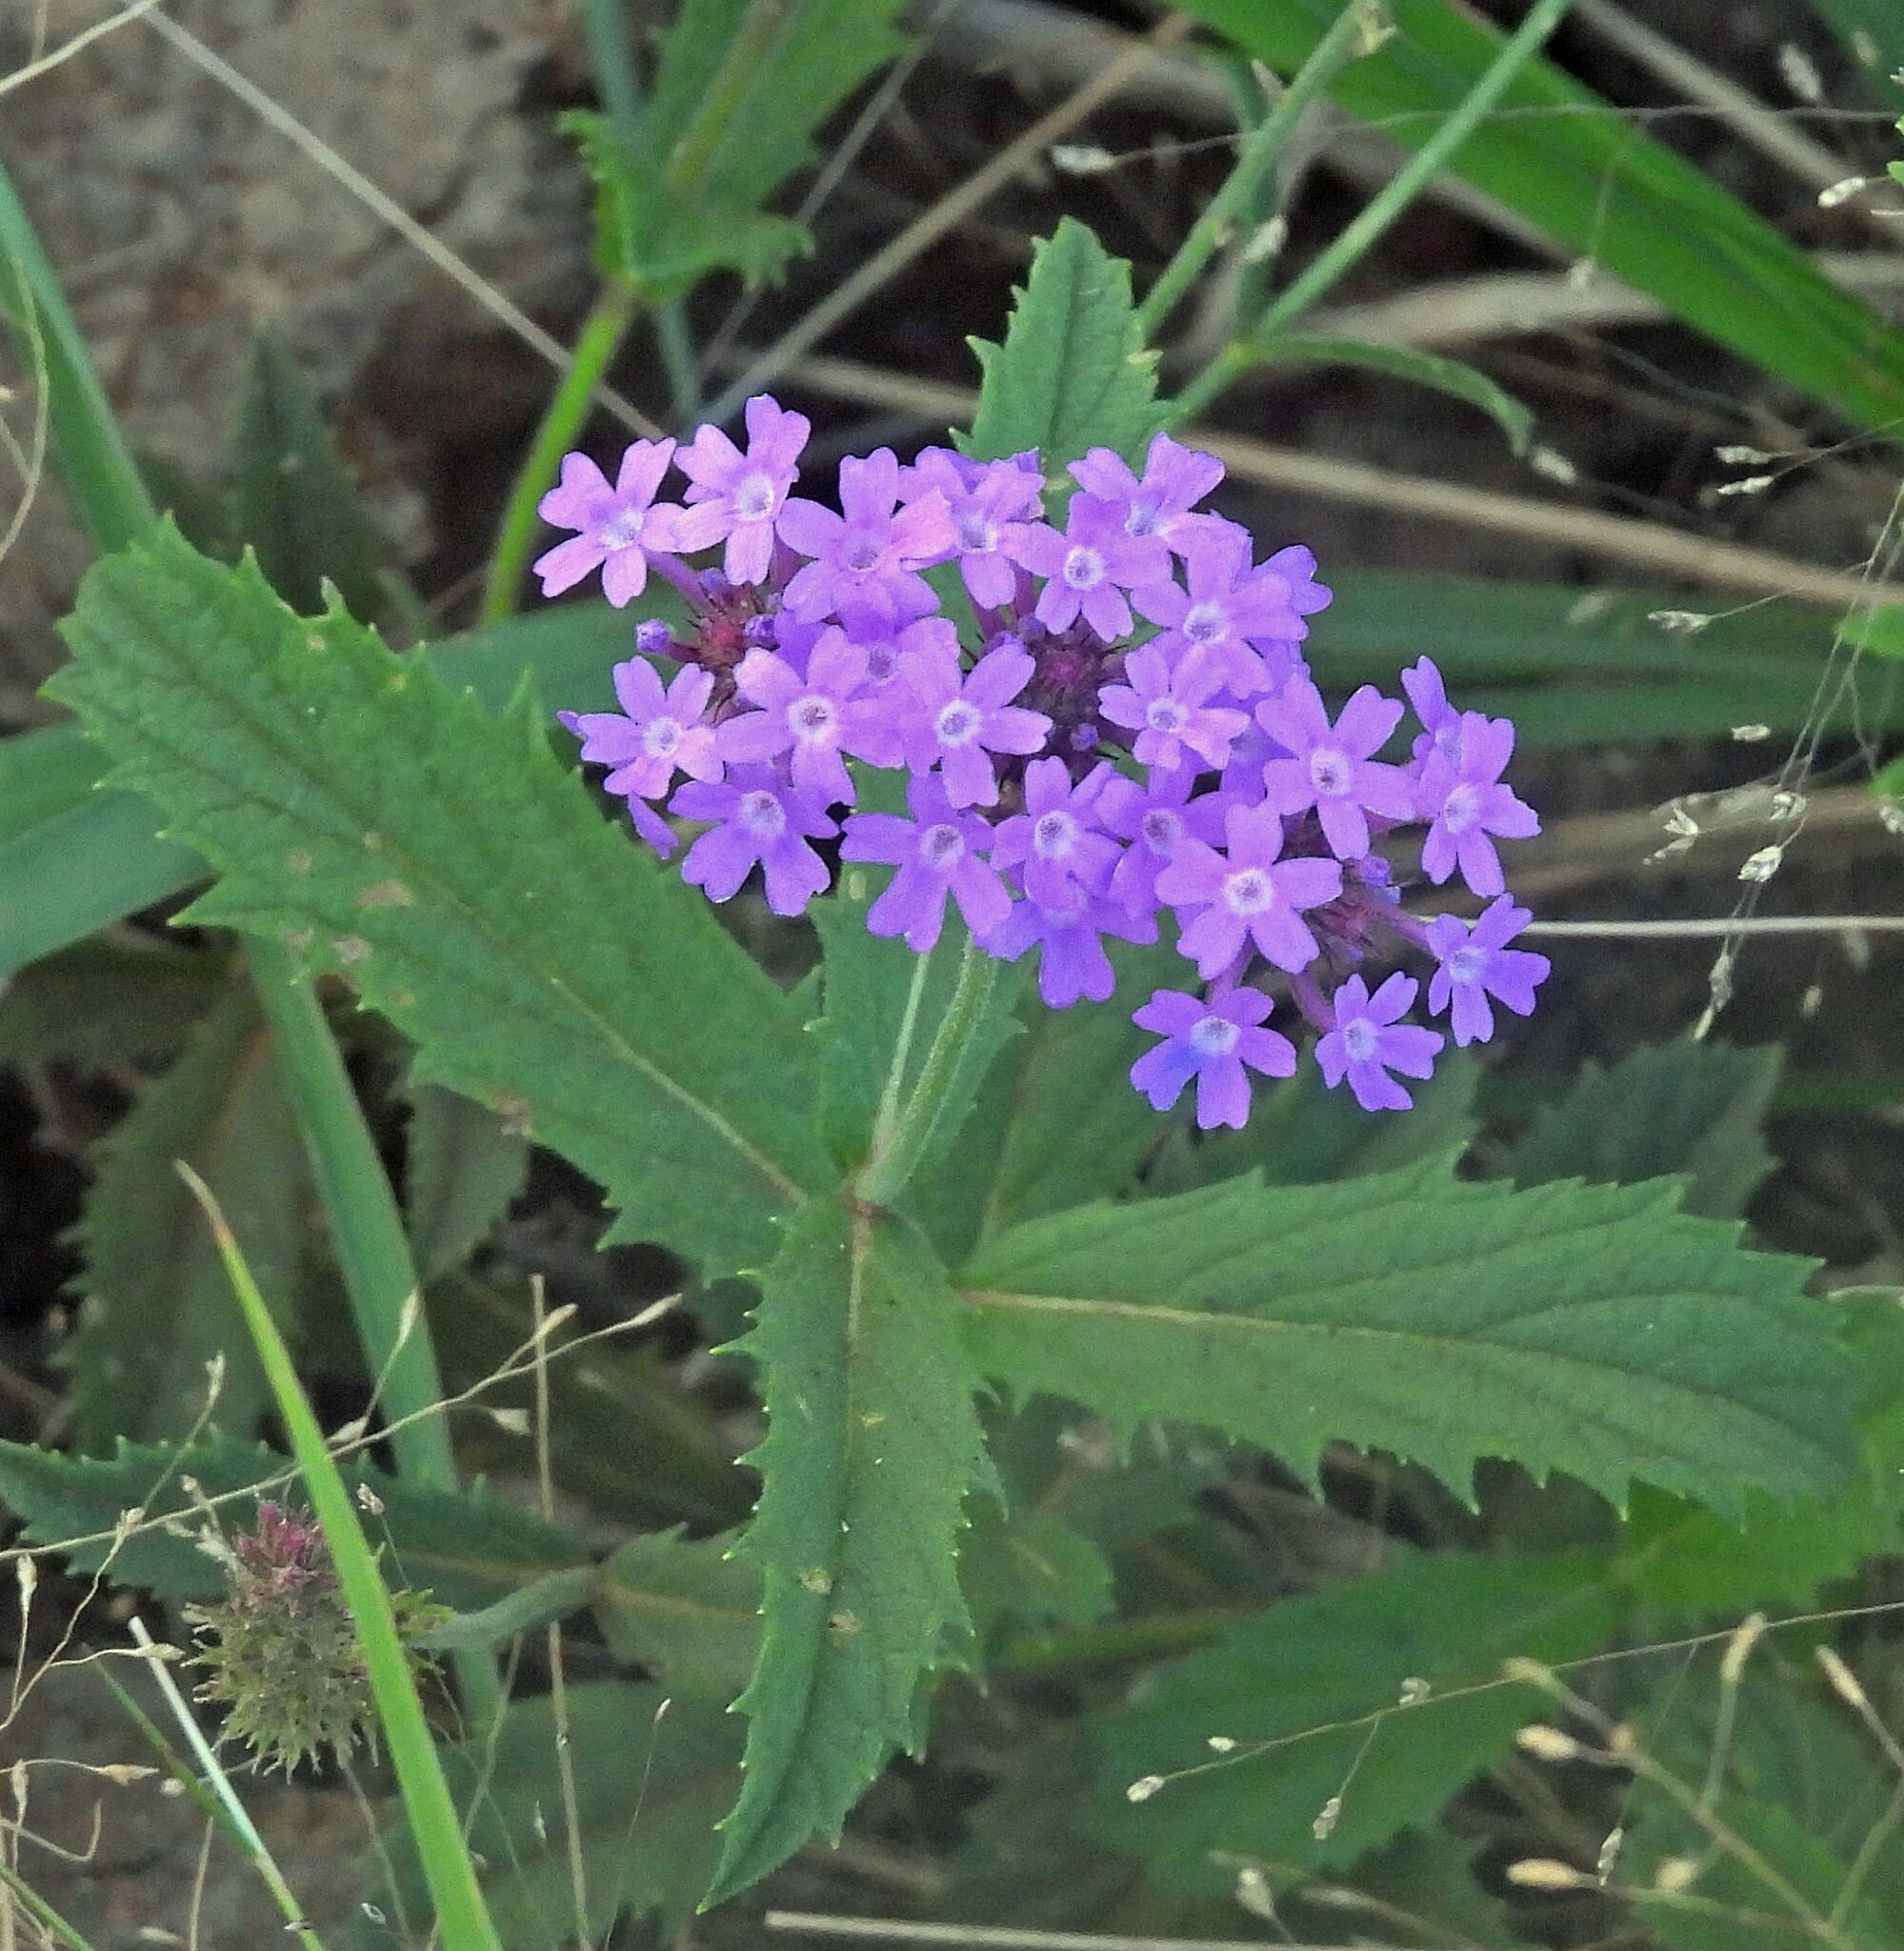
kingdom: Plantae
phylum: Tracheophyta
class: Magnoliopsida
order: Lamiales
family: Verbenaceae
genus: Verbena
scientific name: Verbena rigida
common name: Slender vervain
